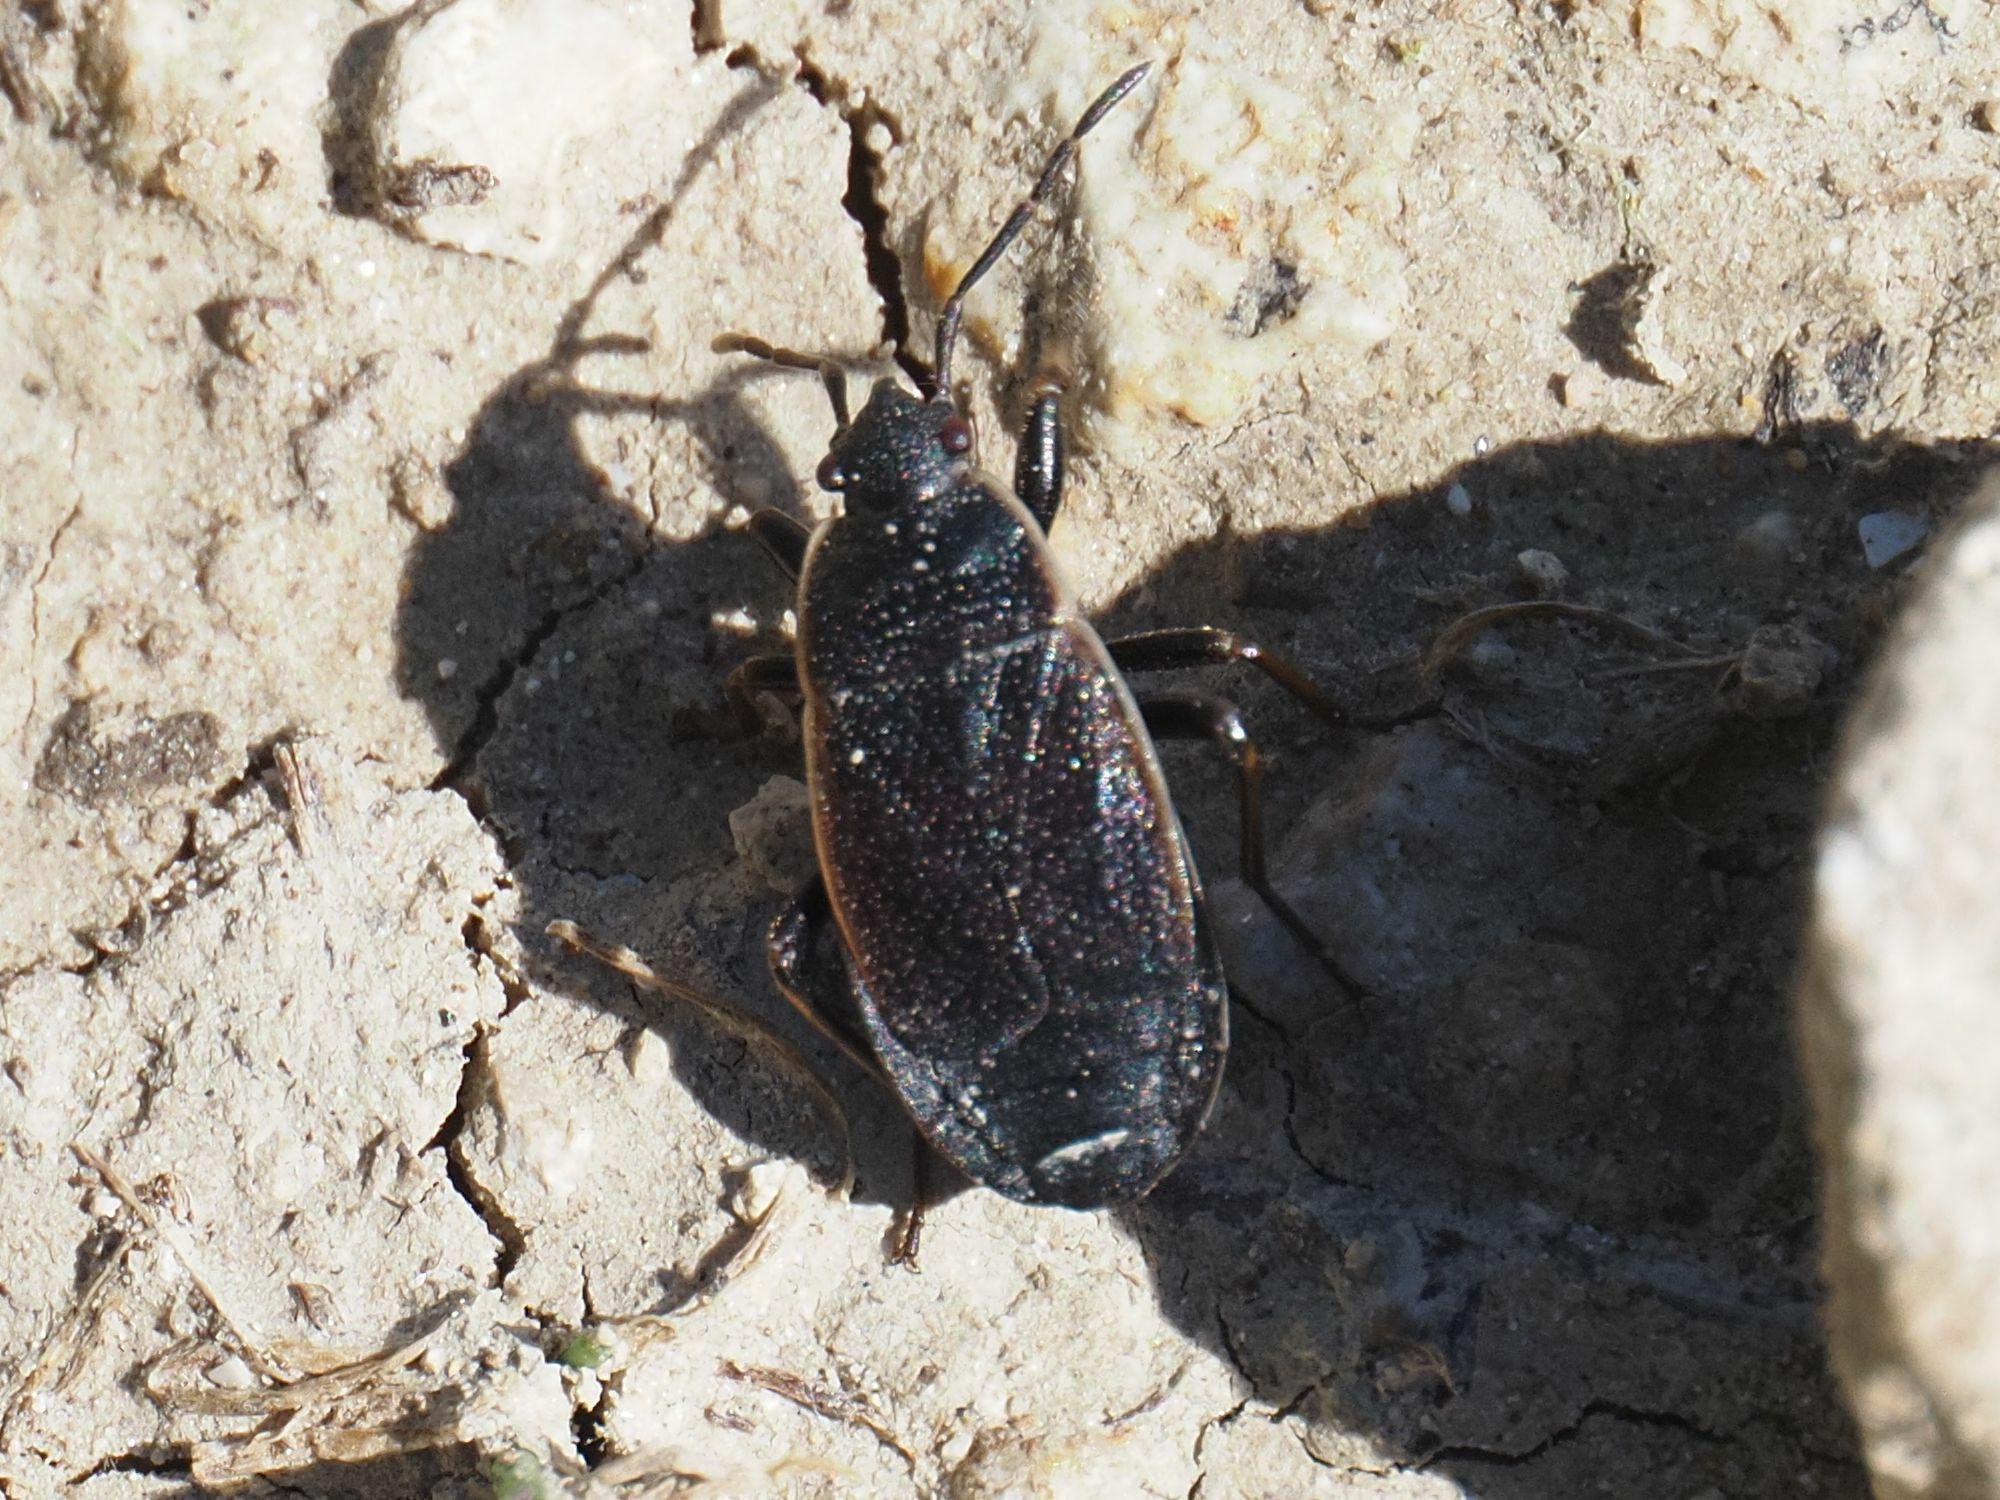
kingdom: Animalia
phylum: Arthropoda
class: Insecta
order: Hemiptera
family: Pyrrhocoridae
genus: Pyrrhocoris
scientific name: Pyrrhocoris marginatus
